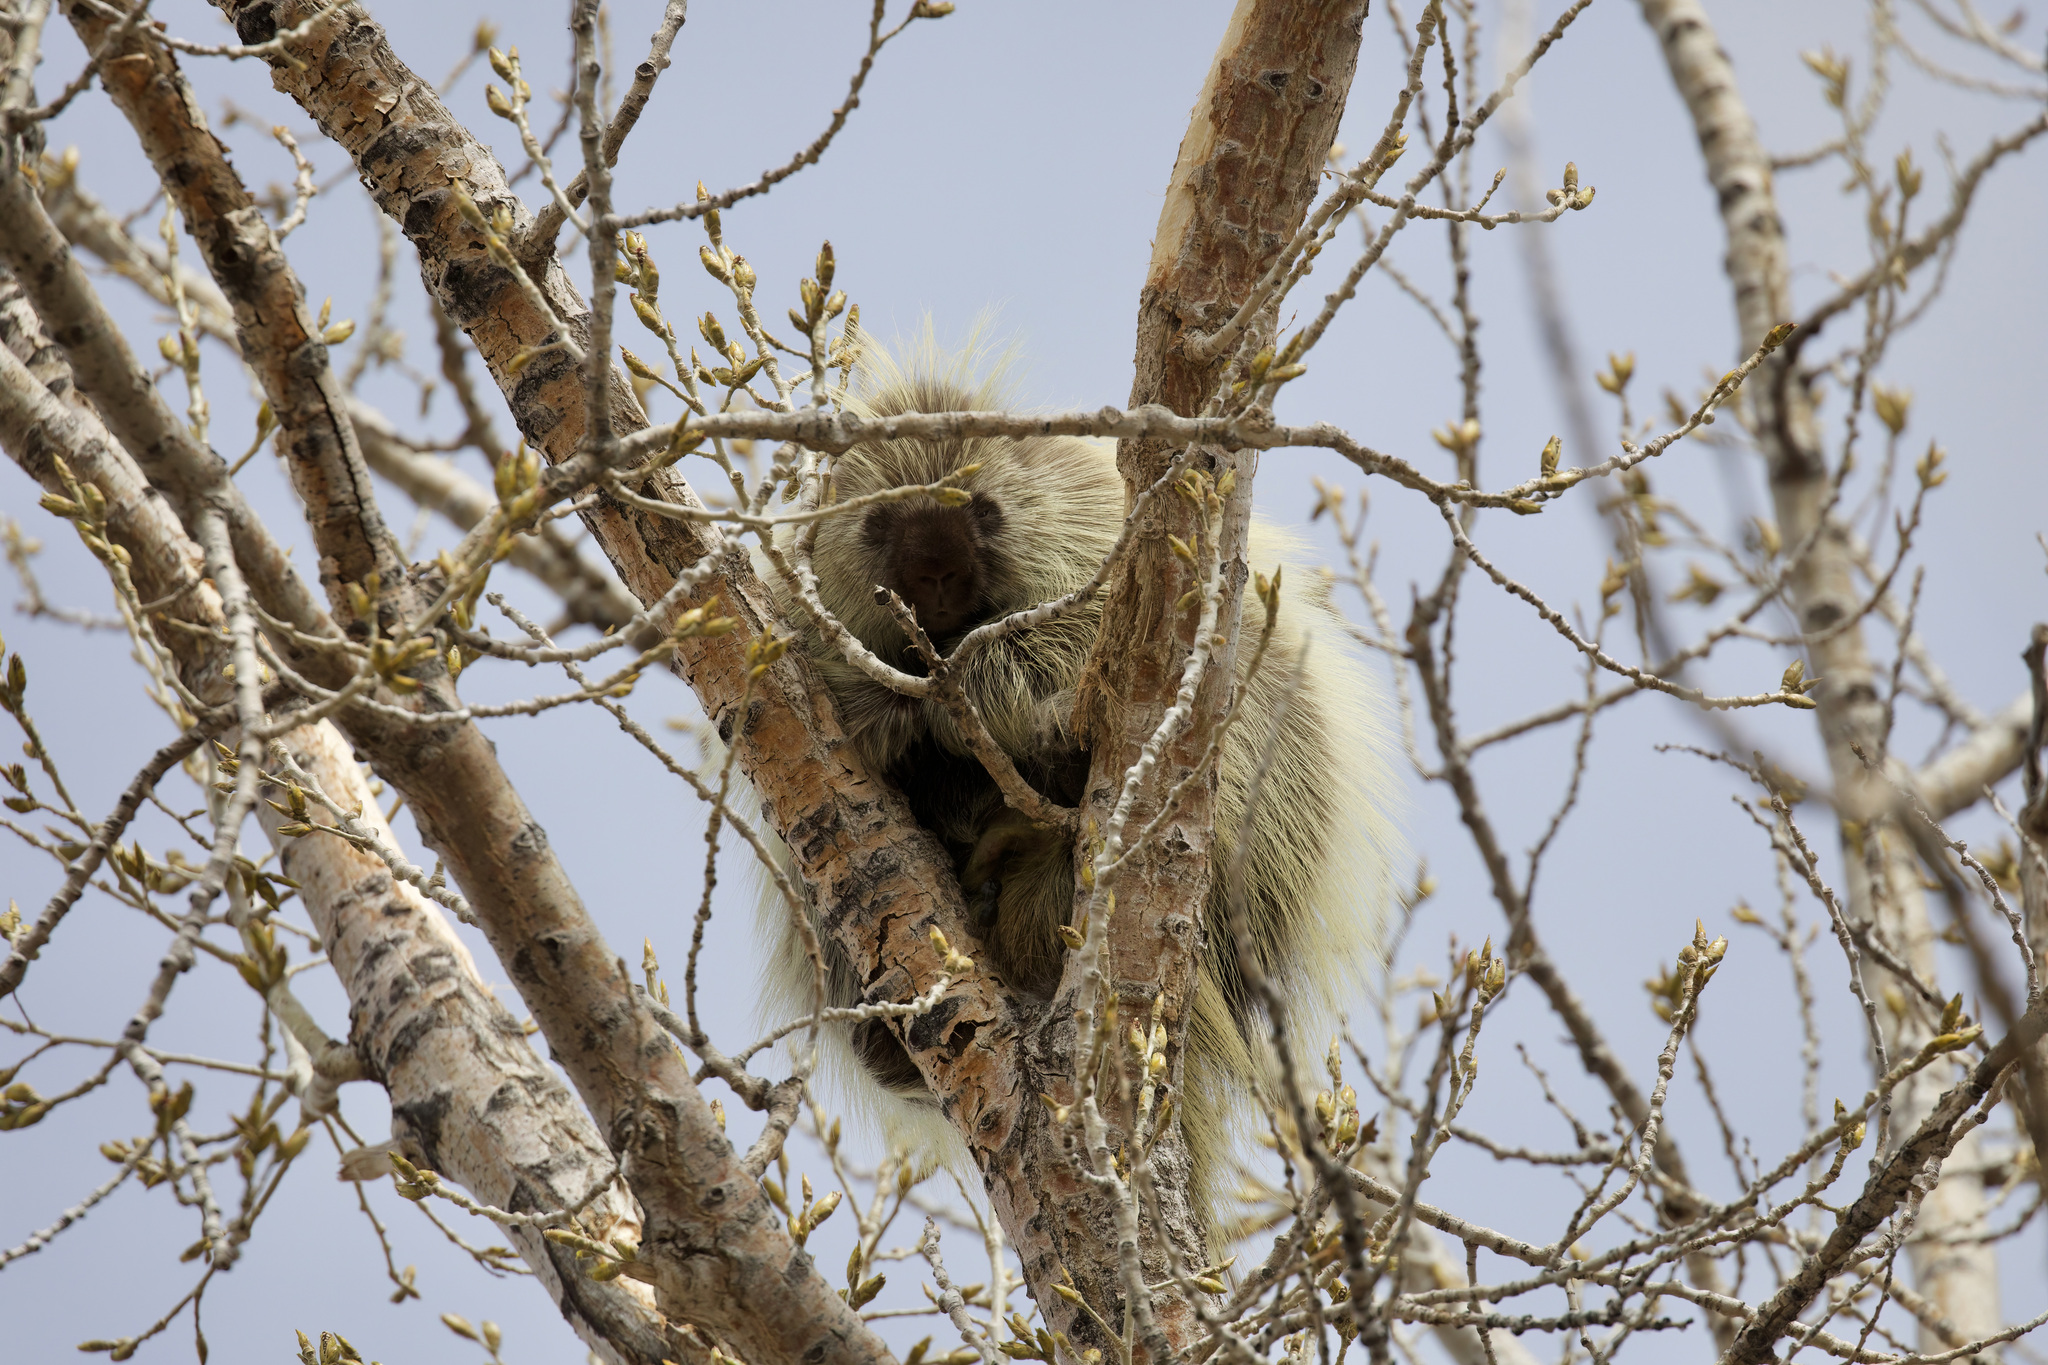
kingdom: Animalia
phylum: Chordata
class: Mammalia
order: Rodentia
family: Erethizontidae
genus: Erethizon
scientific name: Erethizon dorsatus
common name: North american porcupine
